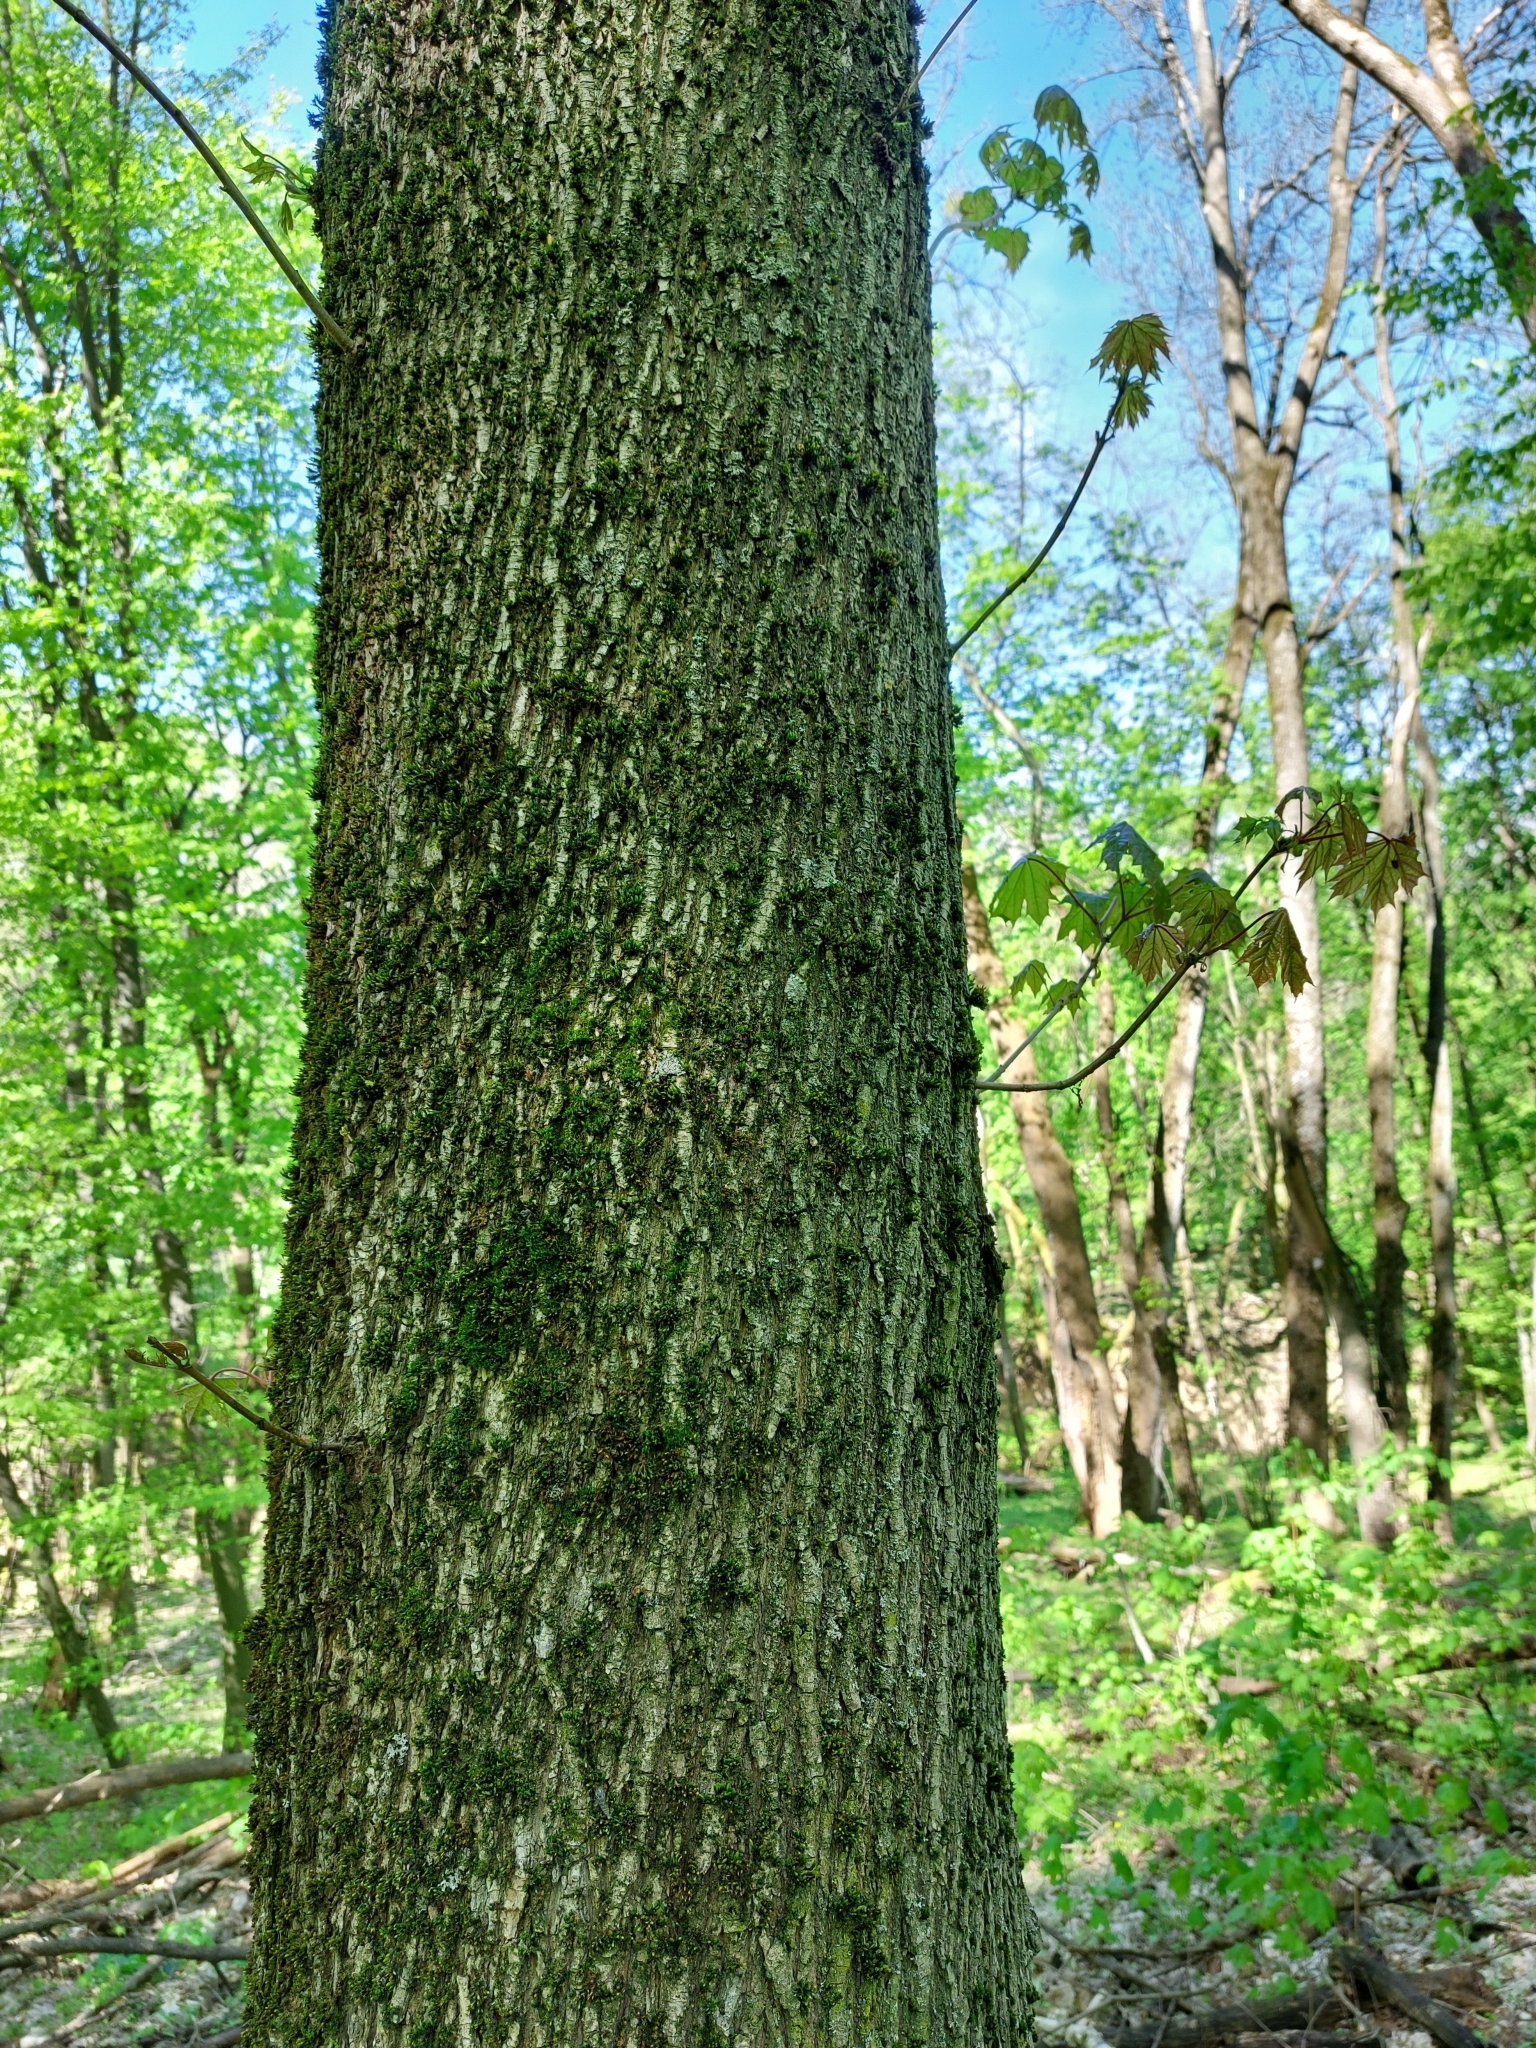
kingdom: Plantae
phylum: Tracheophyta
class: Magnoliopsida
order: Sapindales
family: Sapindaceae
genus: Acer
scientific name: Acer platanoides
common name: Norway maple
